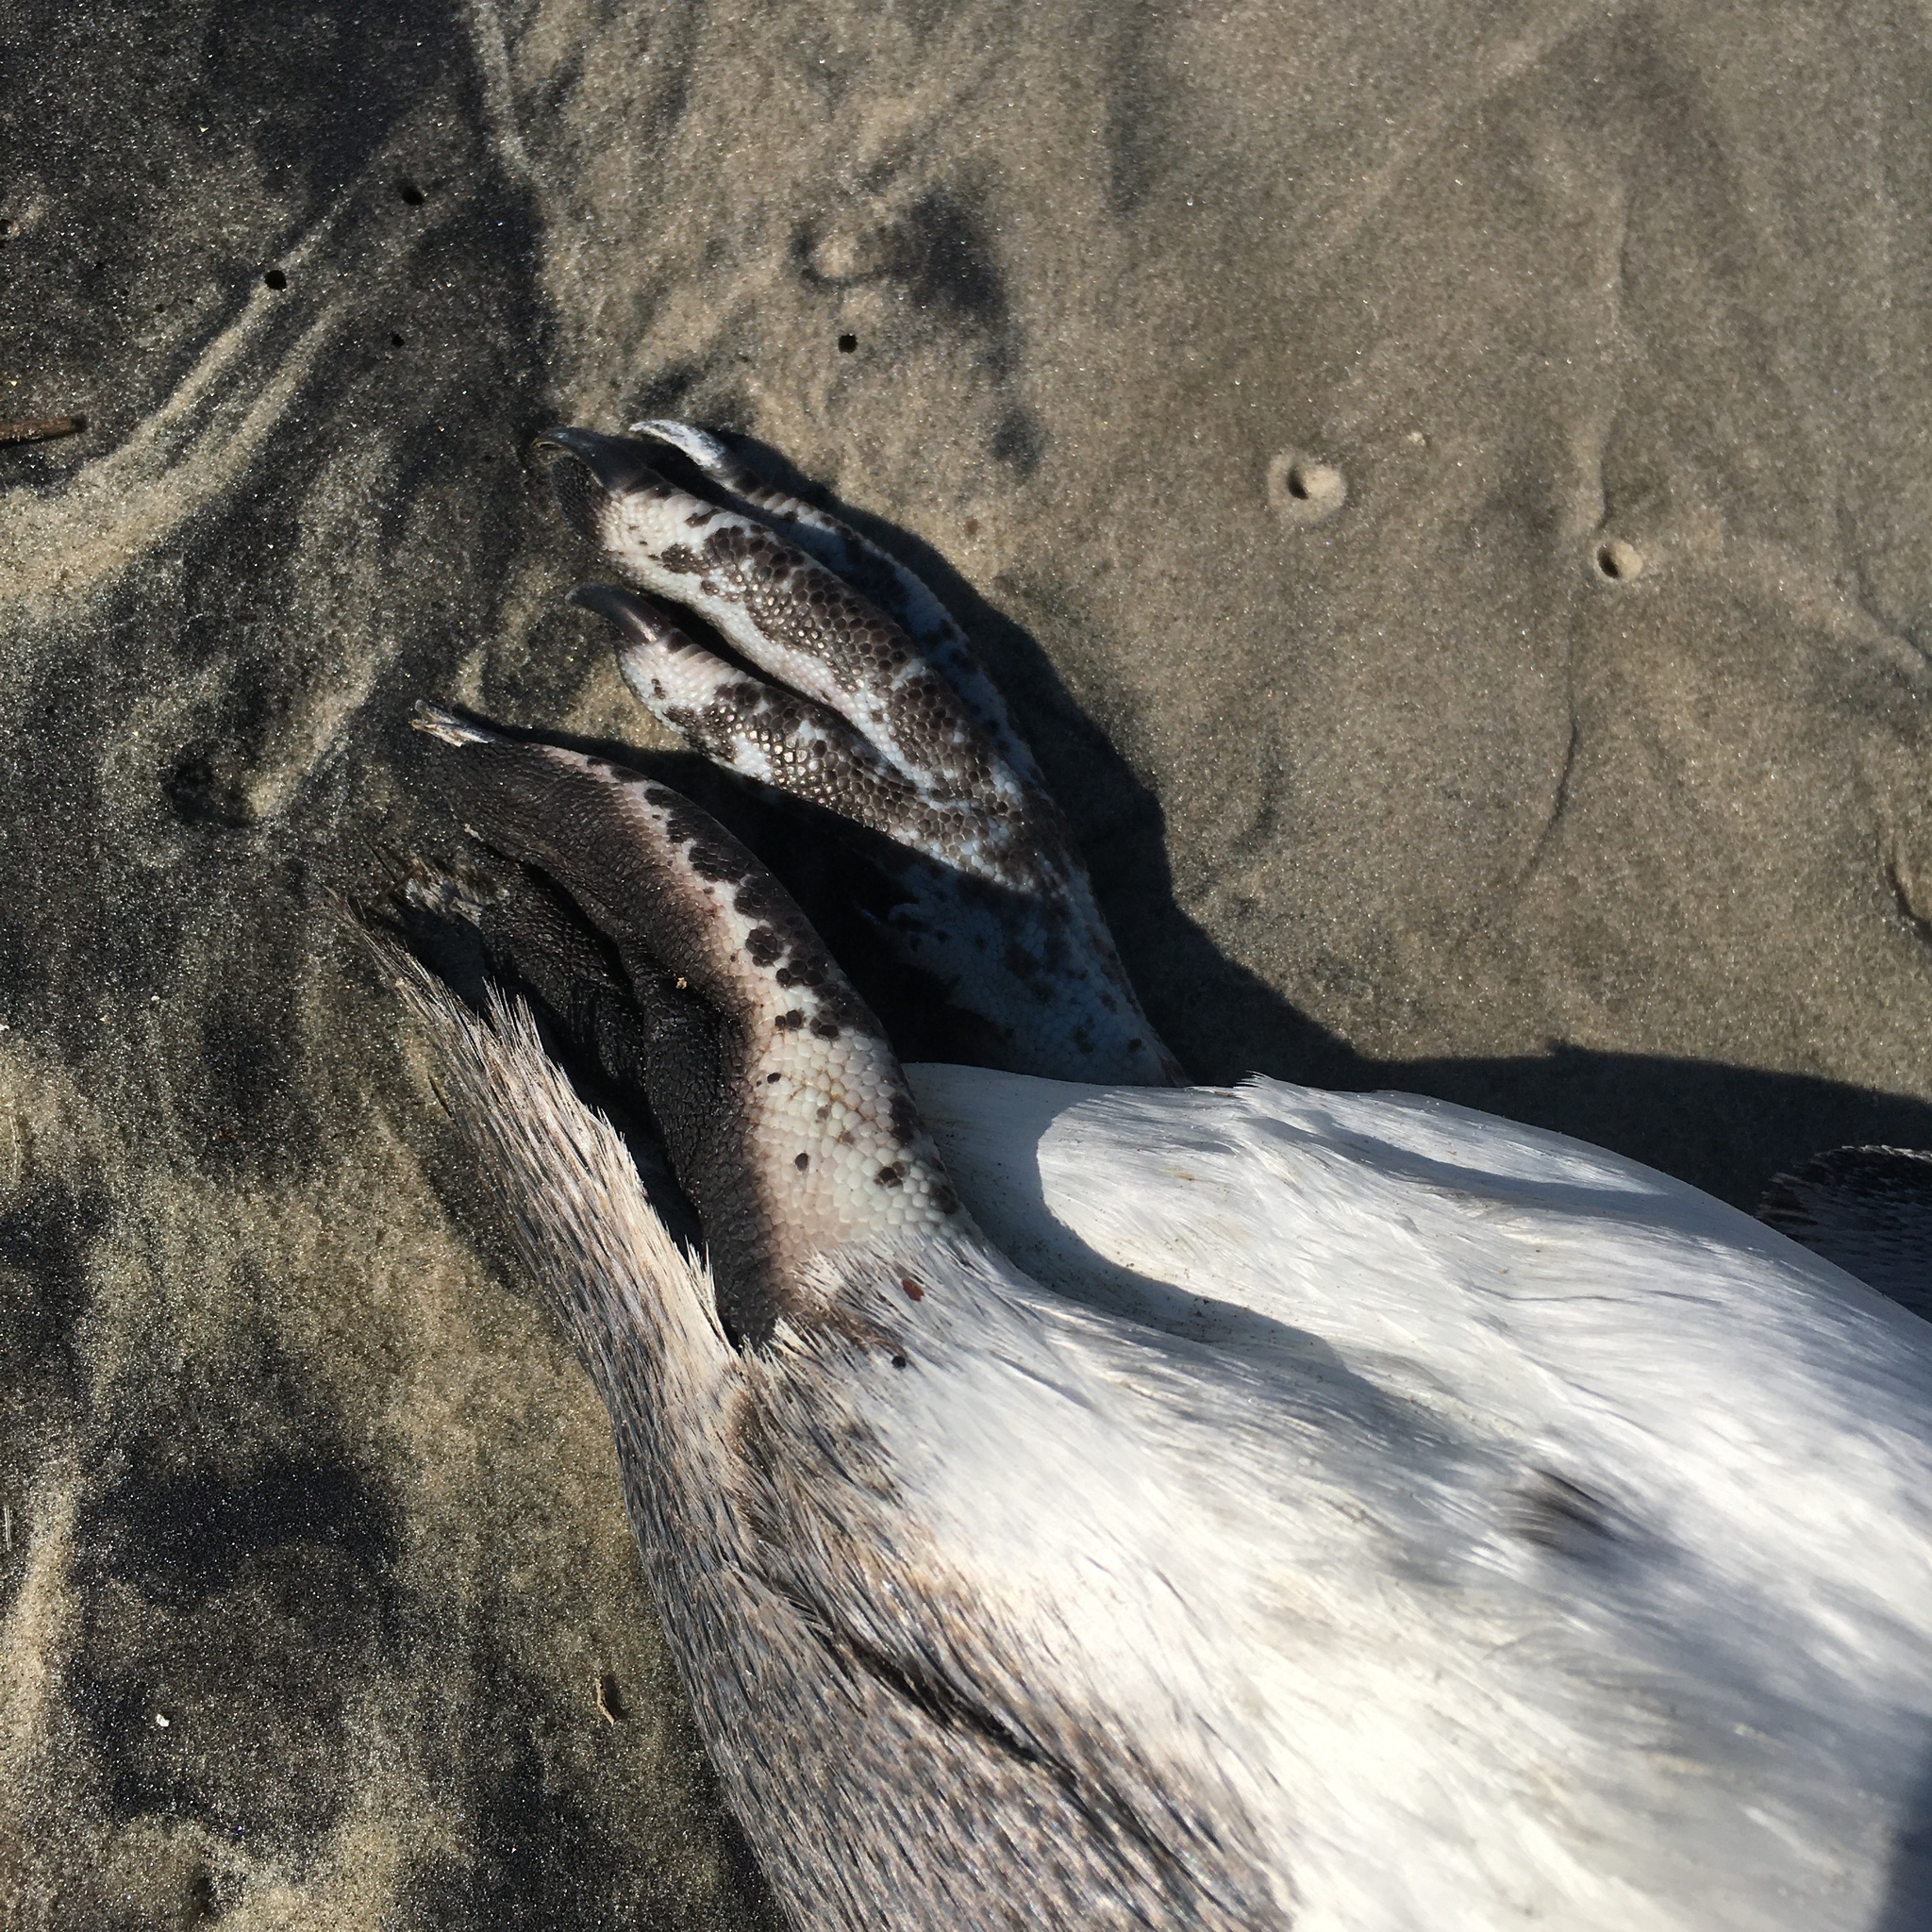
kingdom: Animalia
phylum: Chordata
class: Aves
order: Sphenisciformes
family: Spheniscidae
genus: Spheniscus
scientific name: Spheniscus magellanicus
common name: Magellanic penguin
